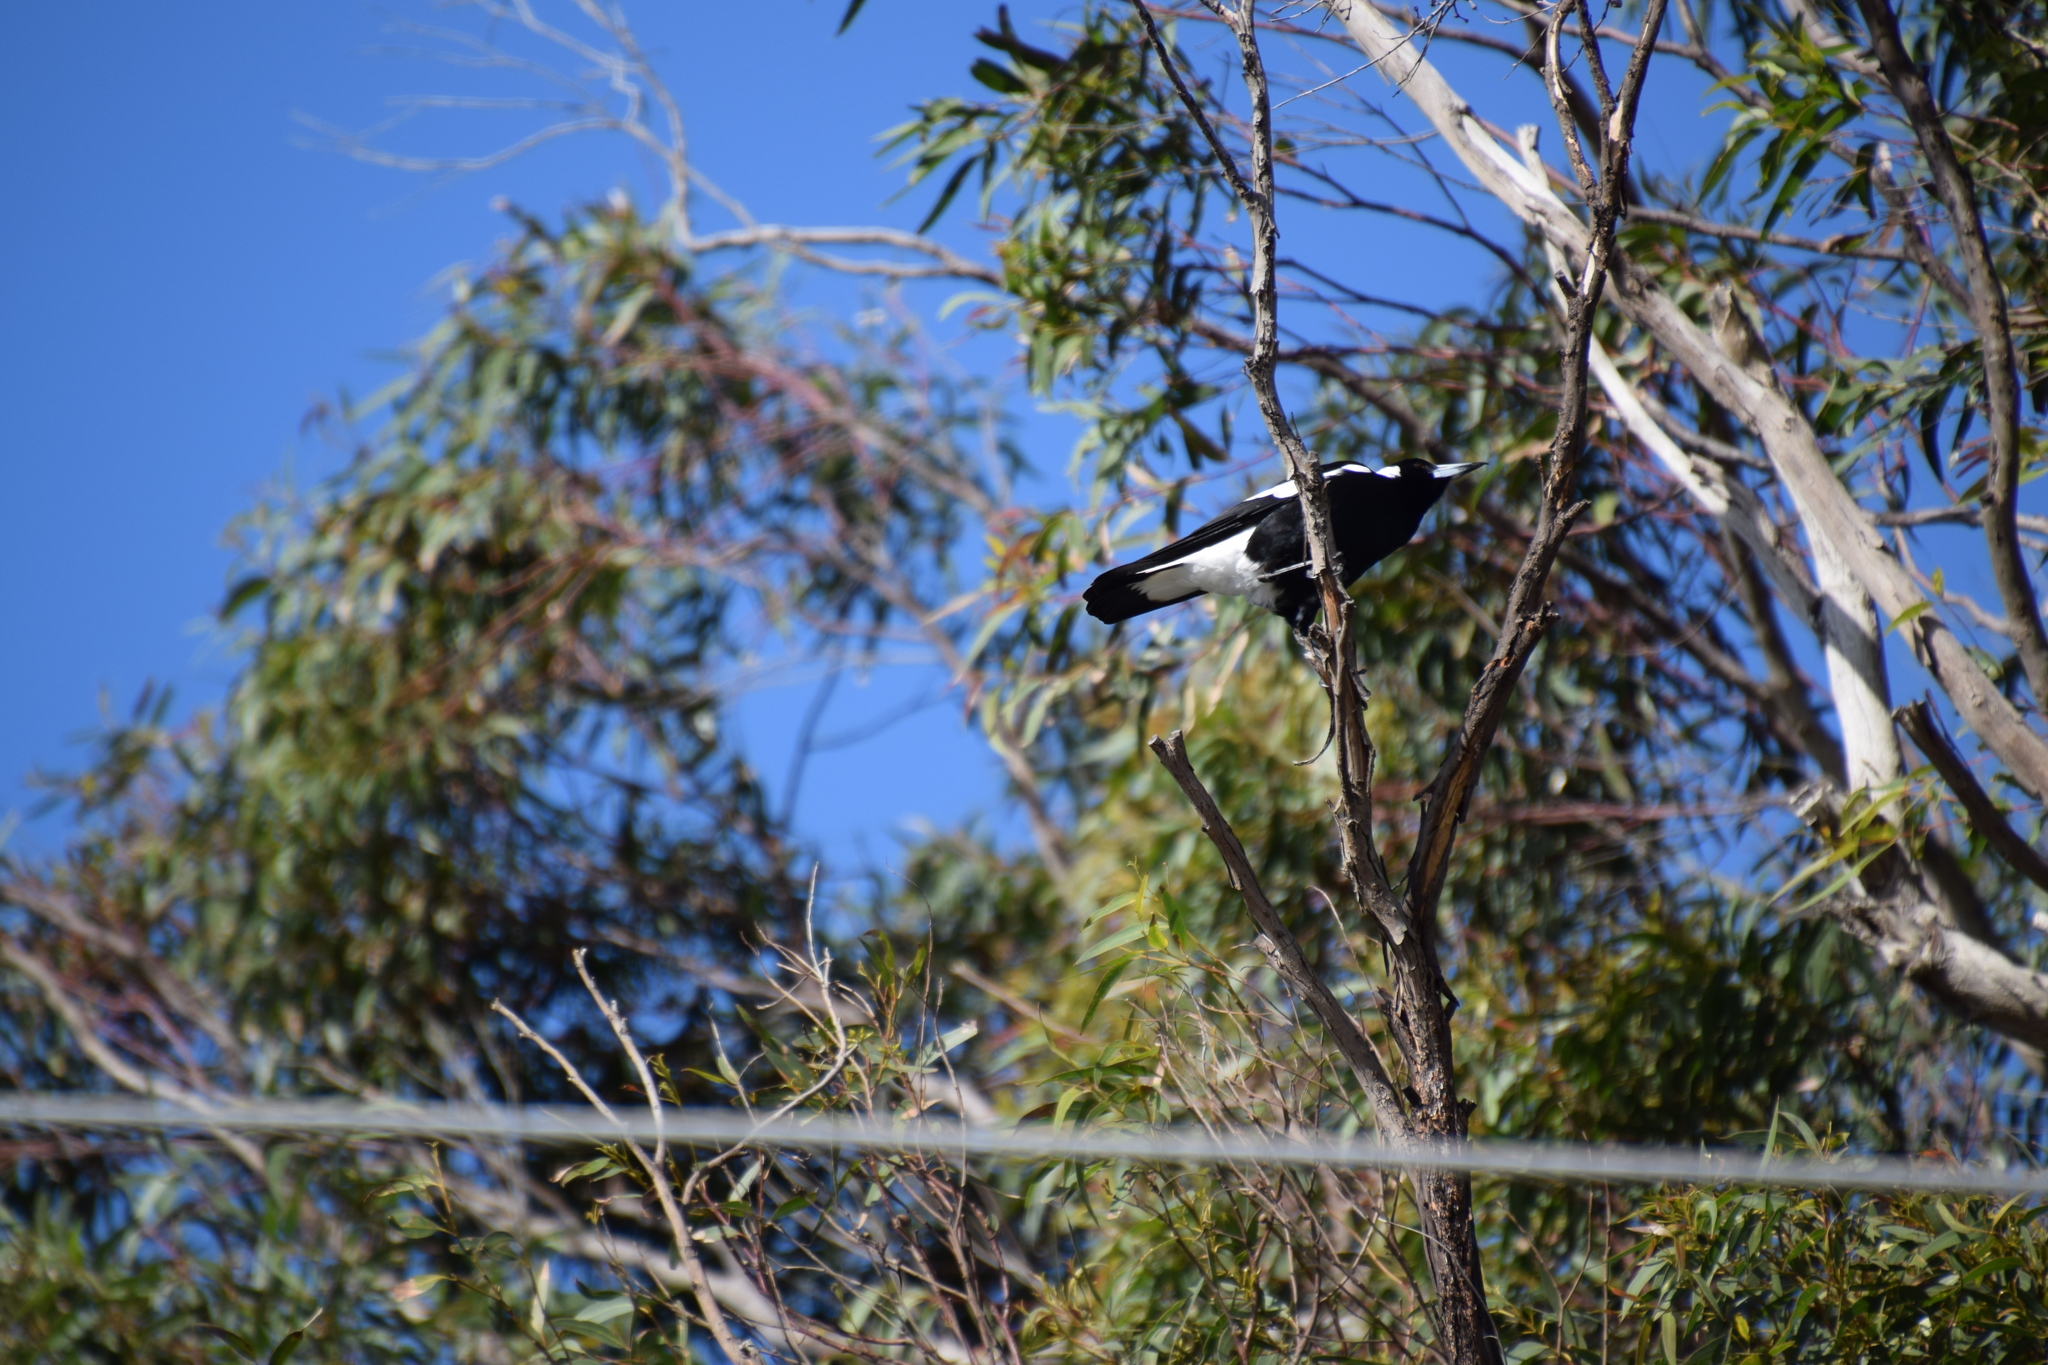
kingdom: Animalia
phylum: Chordata
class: Aves
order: Passeriformes
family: Cracticidae
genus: Gymnorhina
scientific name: Gymnorhina tibicen
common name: Australian magpie
